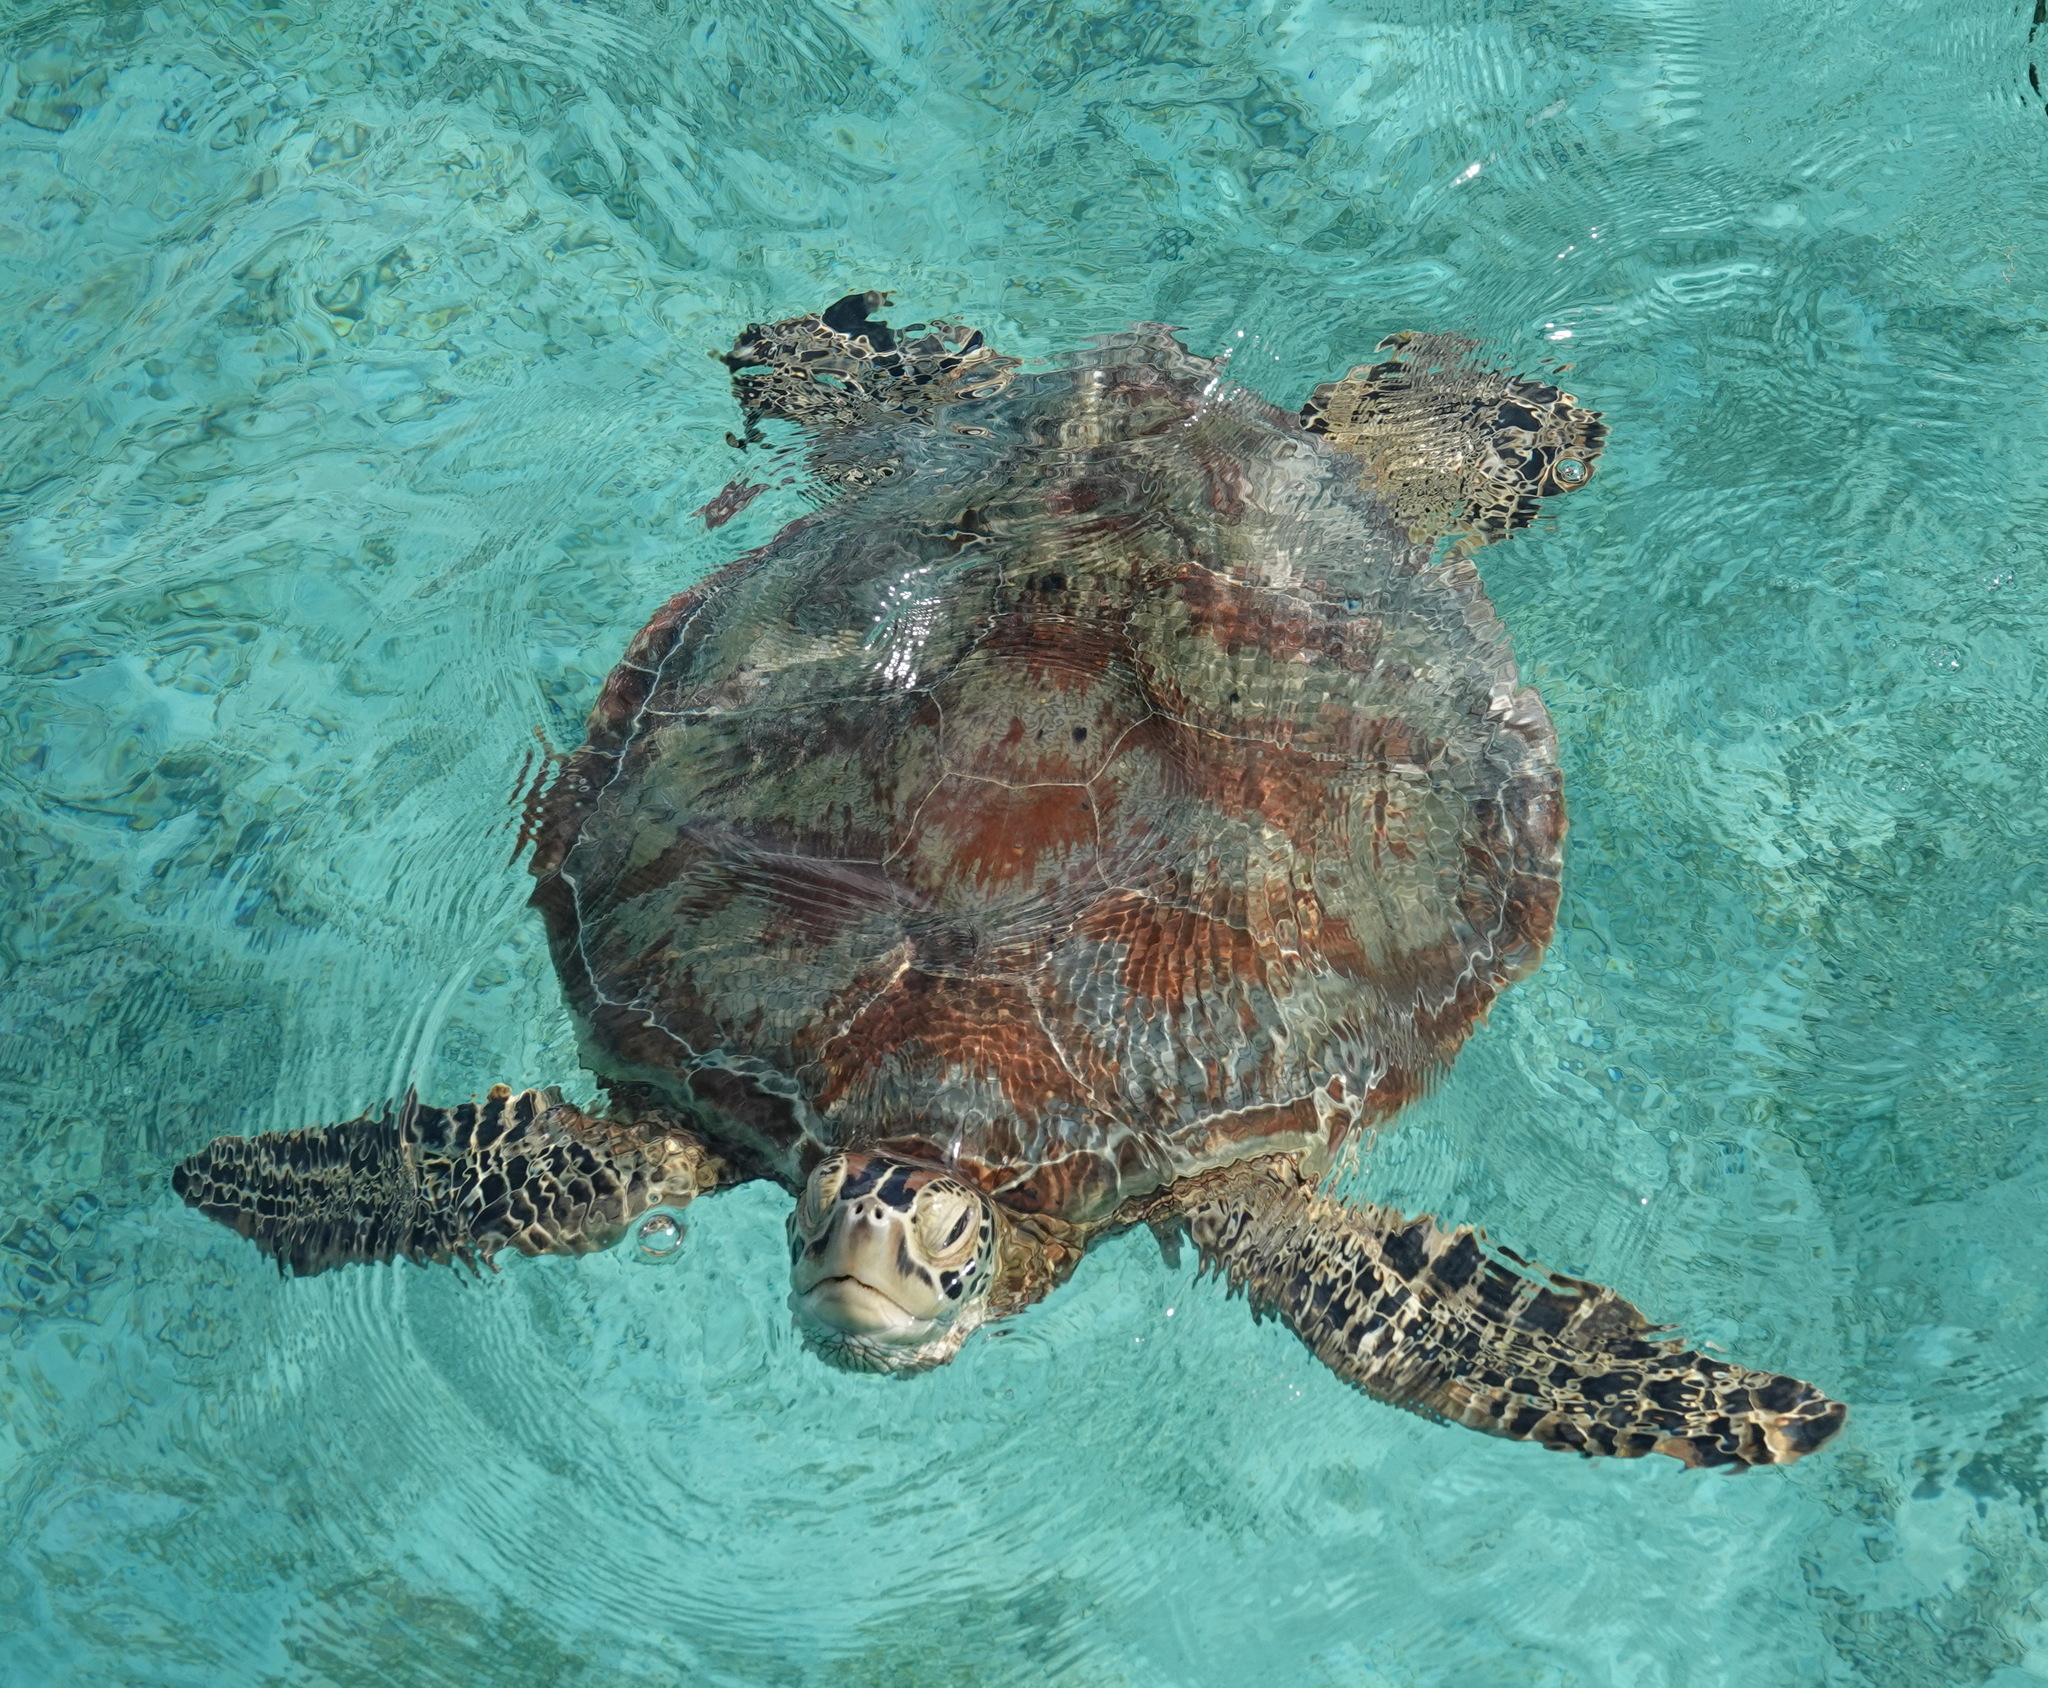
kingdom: Animalia
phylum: Chordata
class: Testudines
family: Cheloniidae
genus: Chelonia
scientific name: Chelonia mydas
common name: Green turtle
